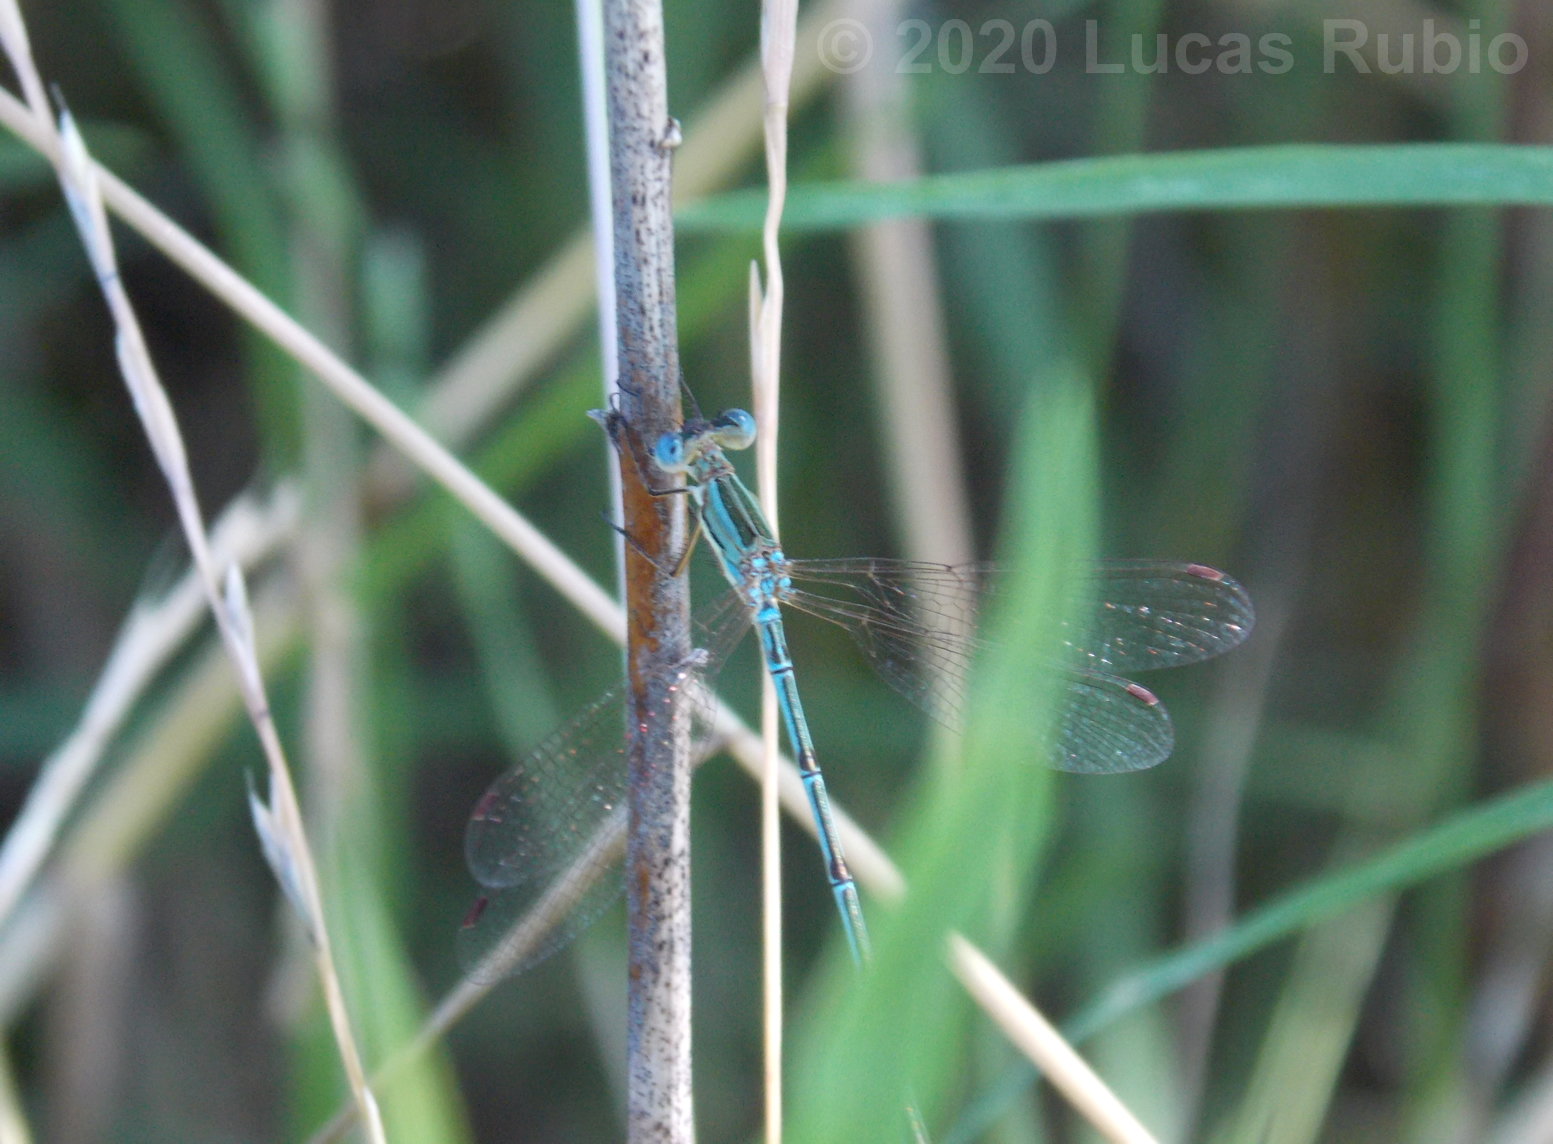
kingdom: Animalia
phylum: Arthropoda
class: Insecta
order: Odonata
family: Lestidae
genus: Lestes
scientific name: Lestes undulatus
